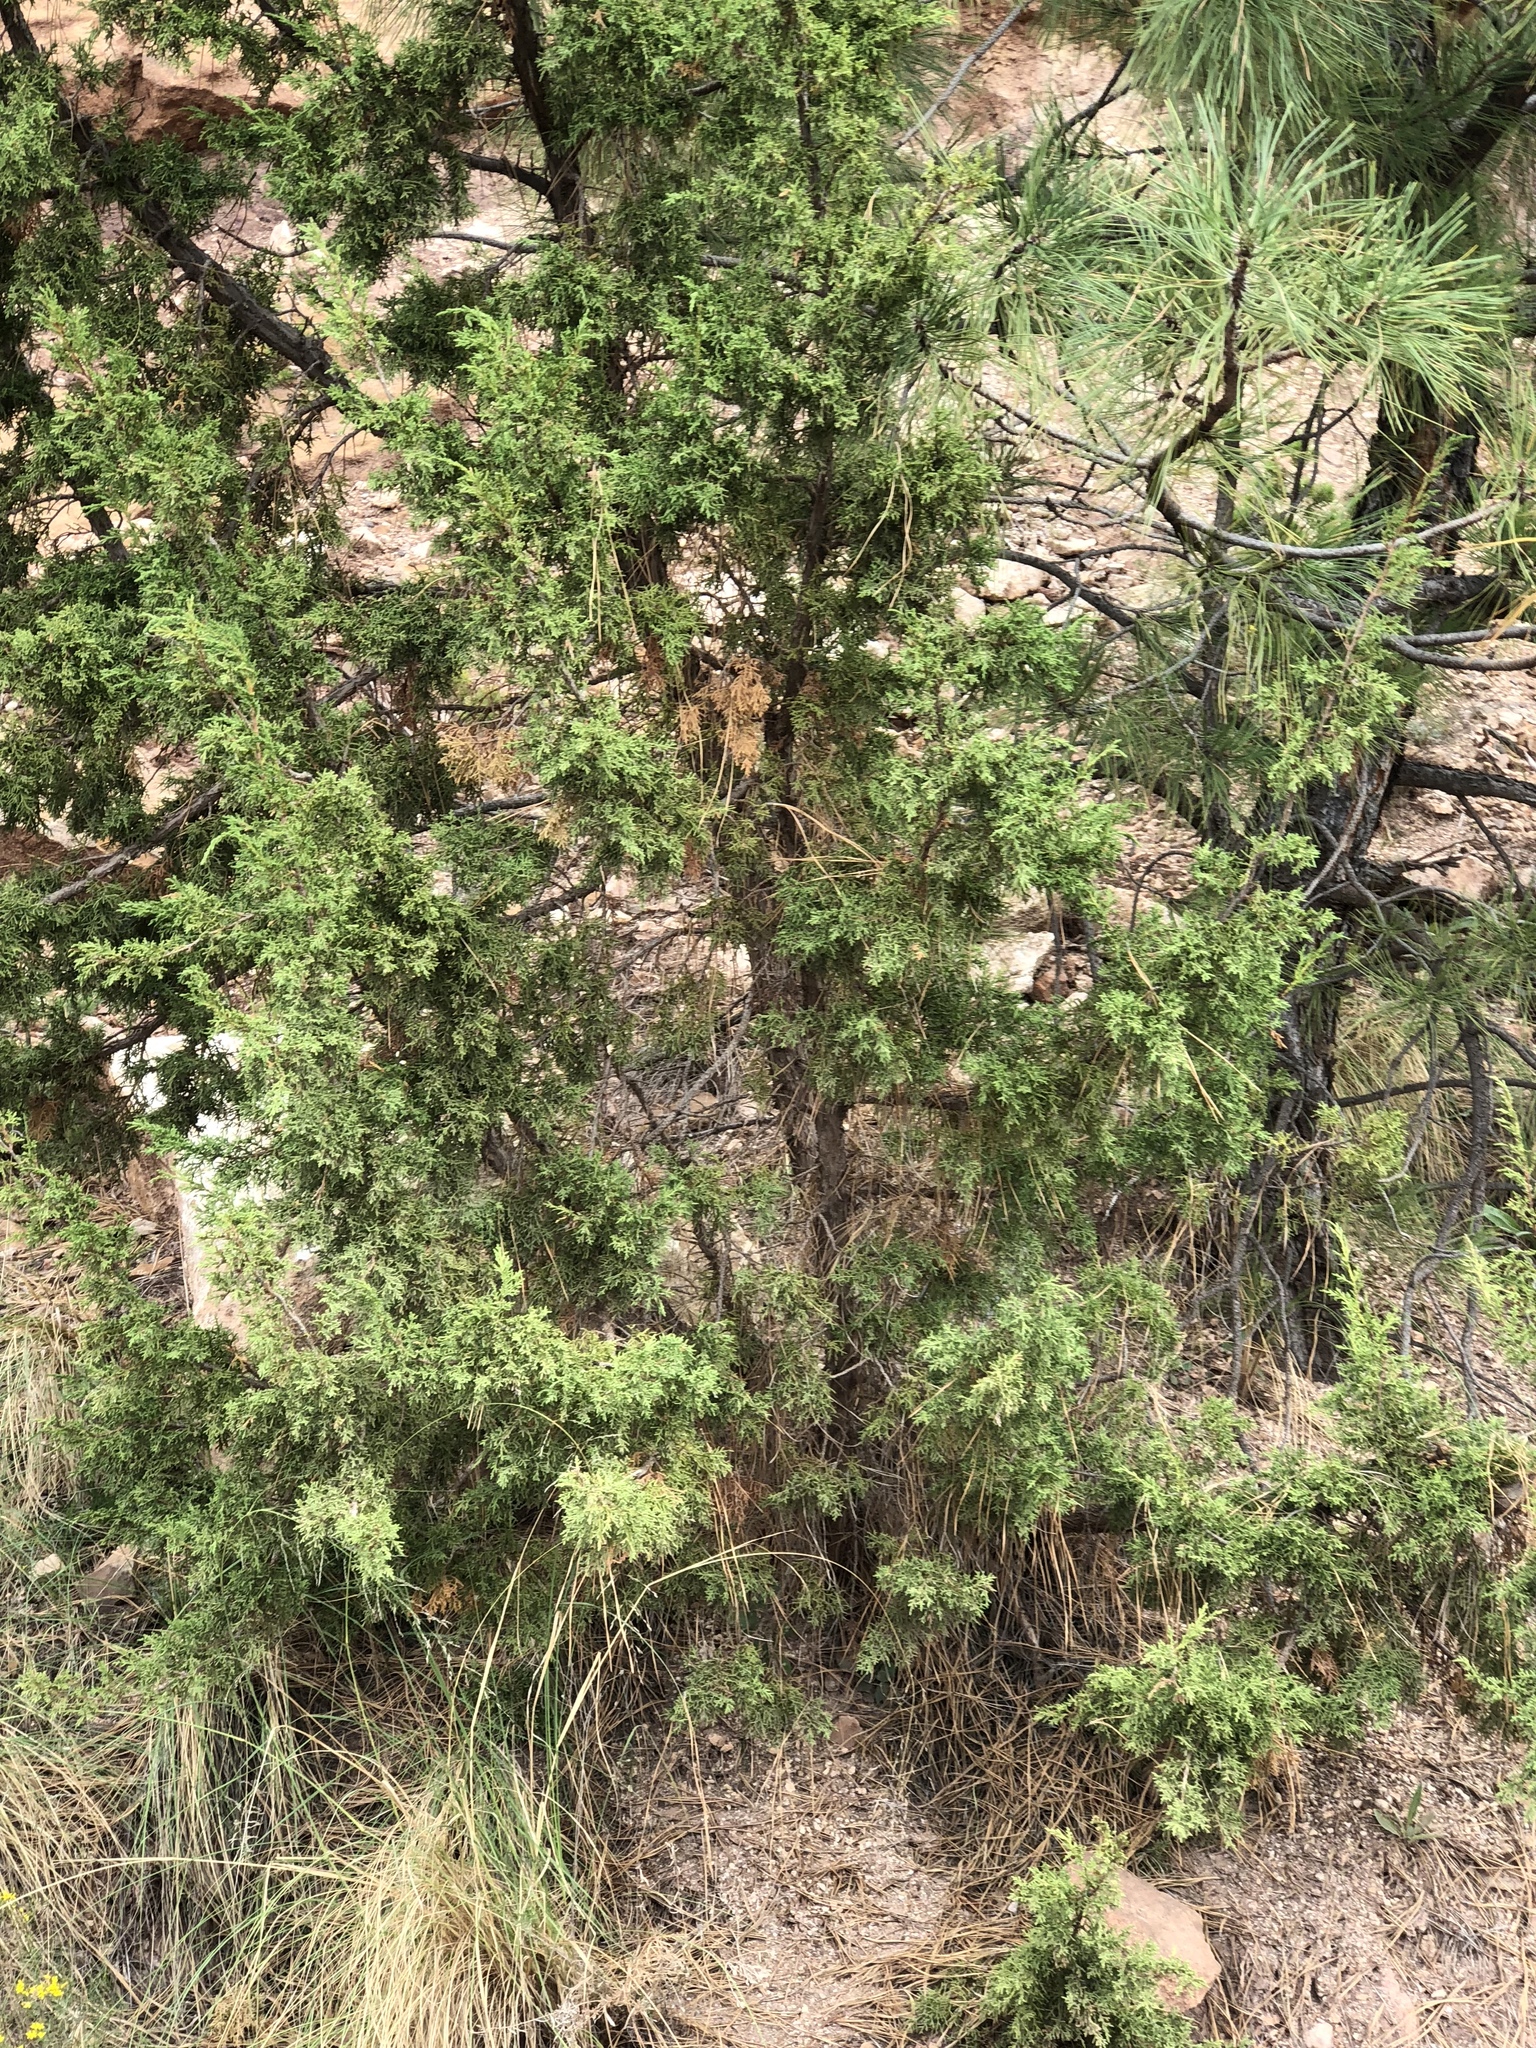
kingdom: Plantae
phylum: Tracheophyta
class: Pinopsida
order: Pinales
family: Cupressaceae
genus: Juniperus
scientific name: Juniperus deppeana
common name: Alligator juniper
